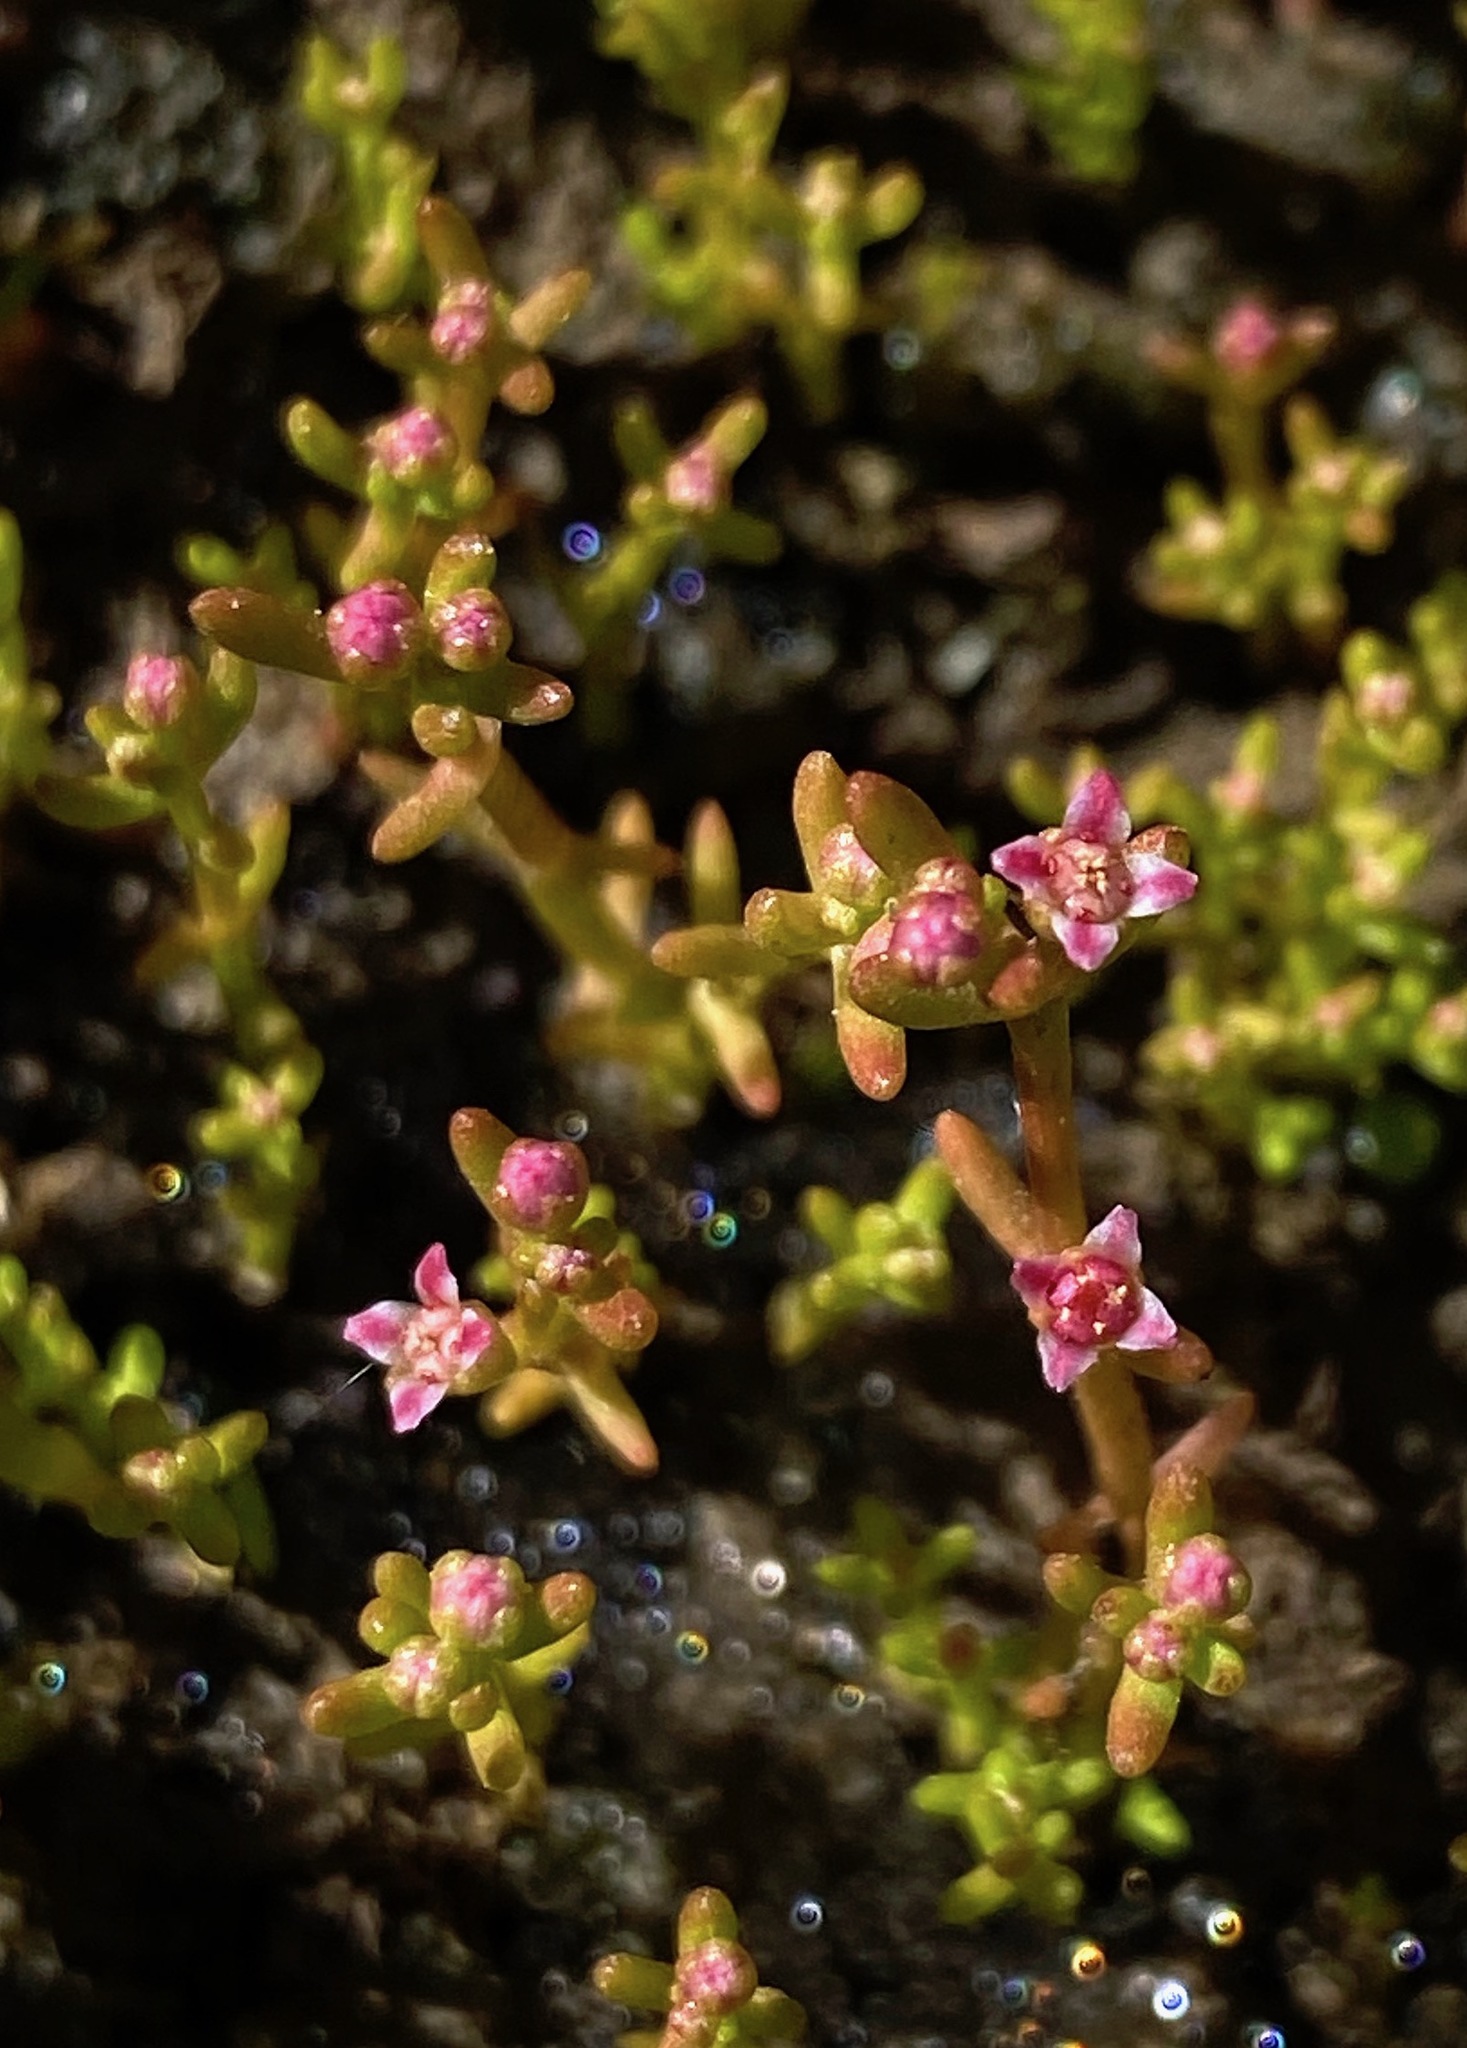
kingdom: Plantae
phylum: Tracheophyta
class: Magnoliopsida
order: Saxifragales
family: Crassulaceae
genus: Crassula
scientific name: Crassula vaillantii
